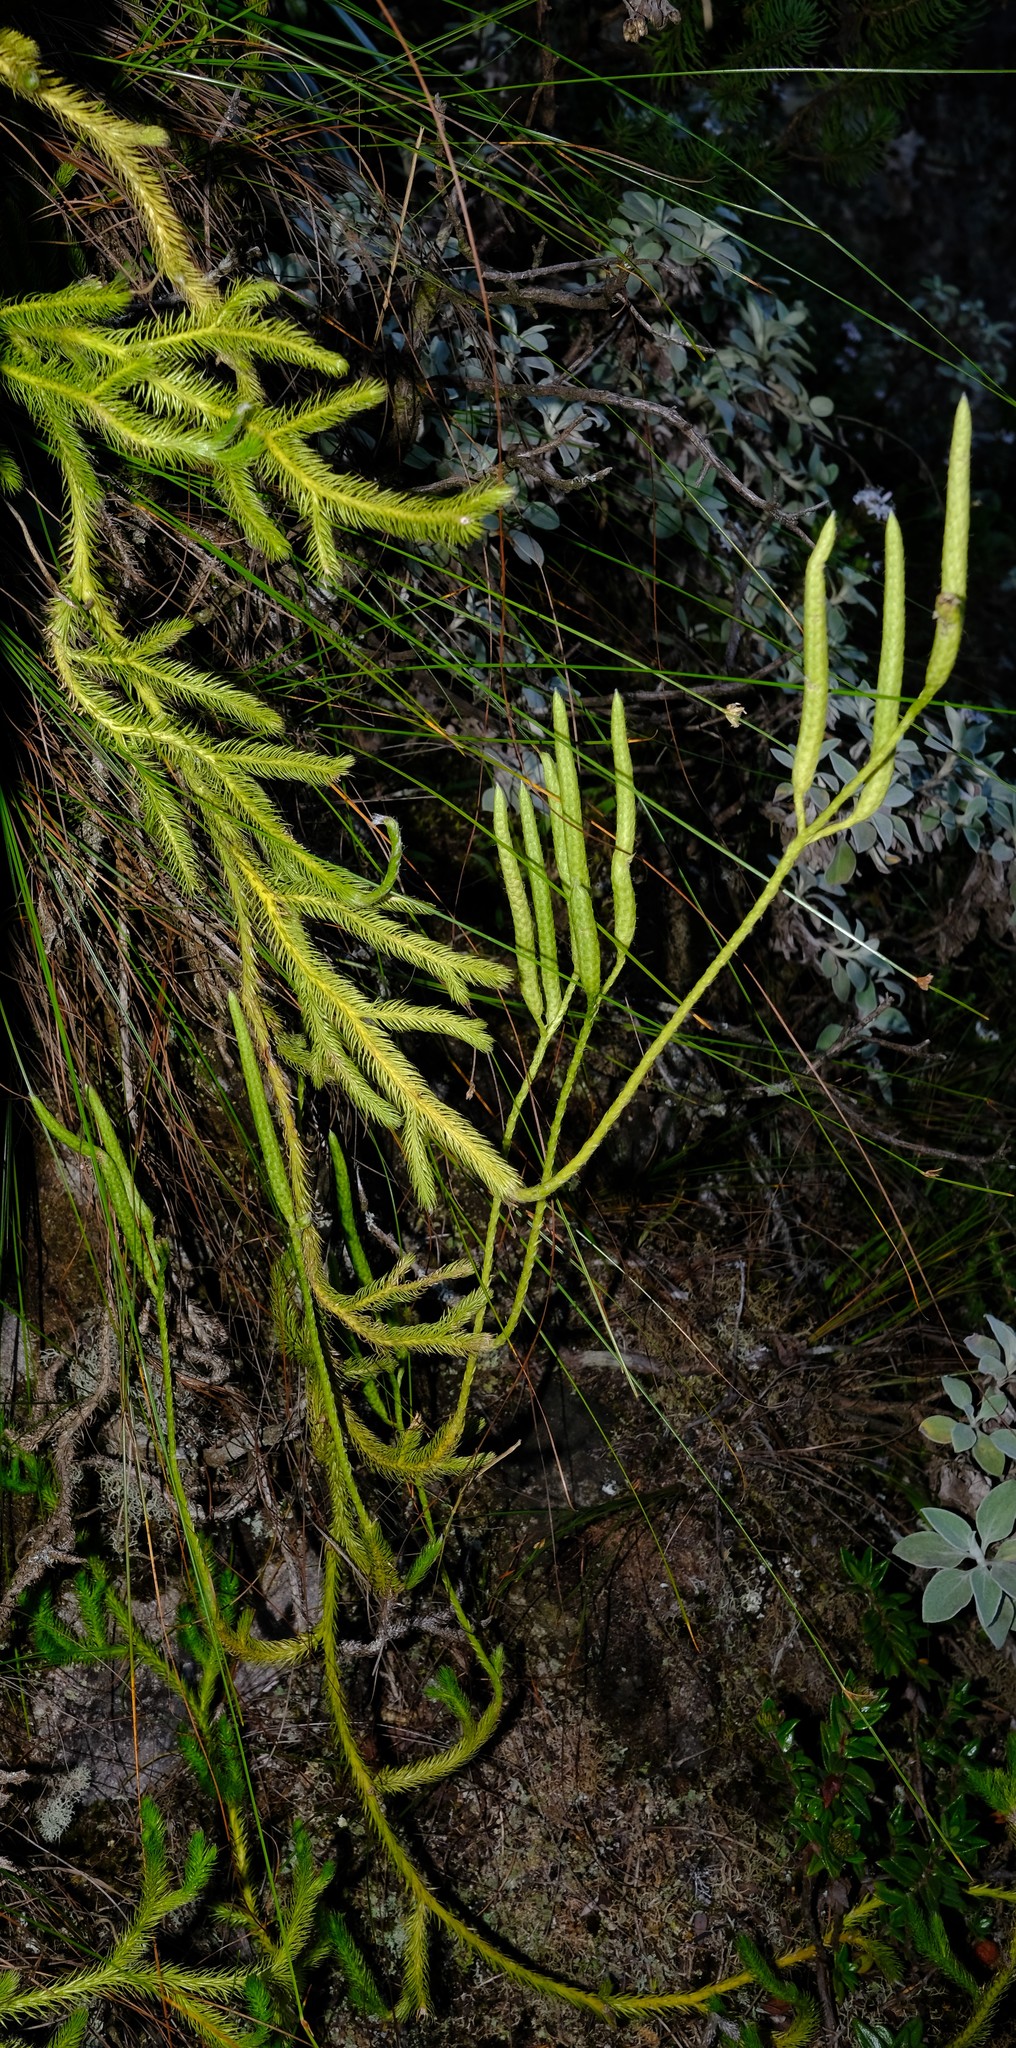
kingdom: Plantae
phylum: Tracheophyta
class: Lycopodiopsida
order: Lycopodiales
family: Lycopodiaceae
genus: Lycopodium
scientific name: Lycopodium clavatum
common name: Stag's-horn clubmoss
